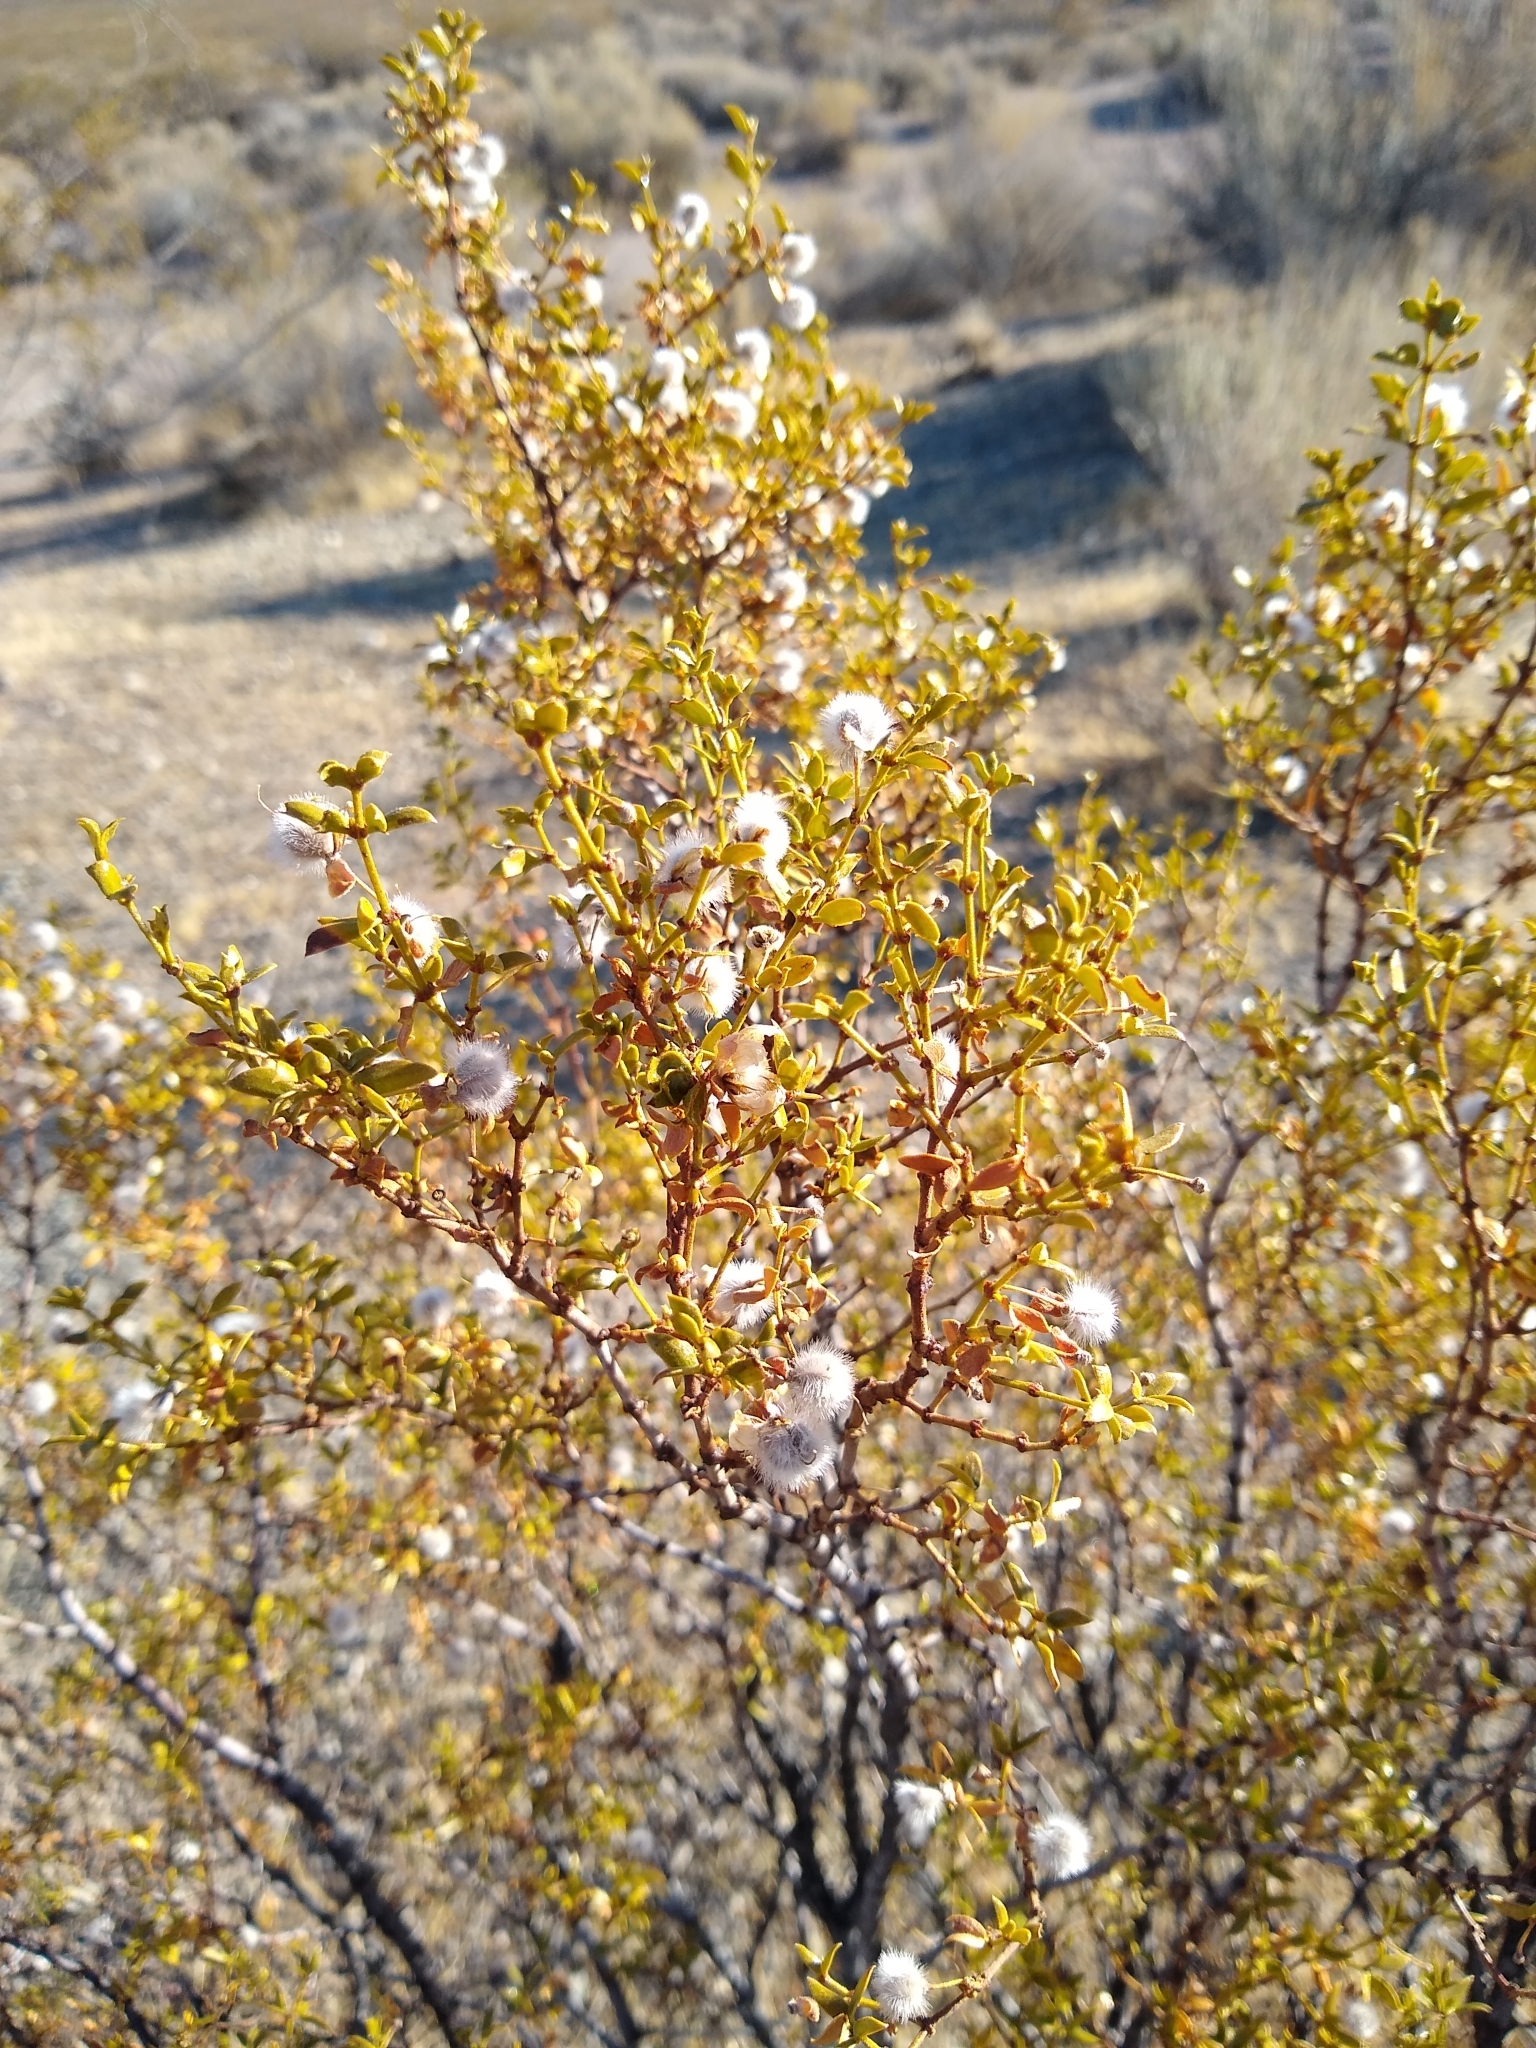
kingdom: Plantae
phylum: Tracheophyta
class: Magnoliopsida
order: Zygophyllales
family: Zygophyllaceae
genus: Larrea
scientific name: Larrea tridentata
